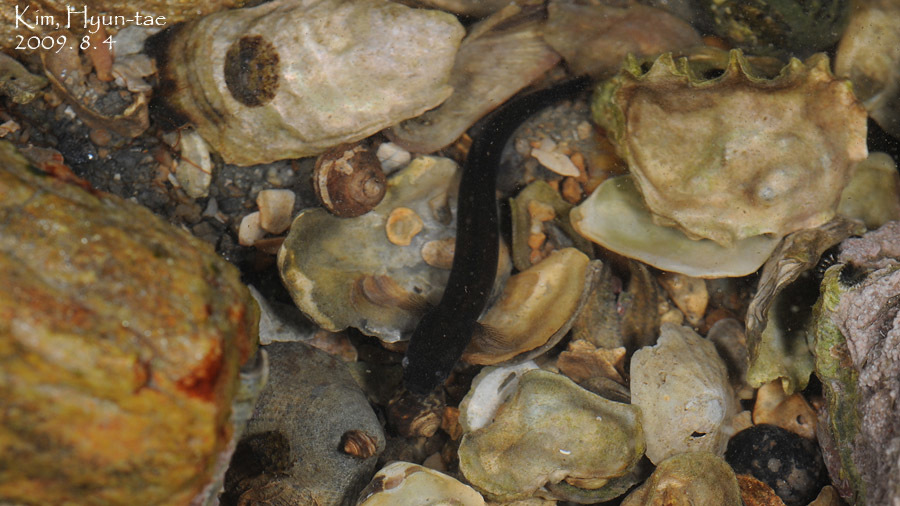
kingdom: Animalia
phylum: Chordata
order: Perciformes
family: Gobiidae
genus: Luciogobius
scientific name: Luciogobius guttatus
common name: Flat-headed goby
